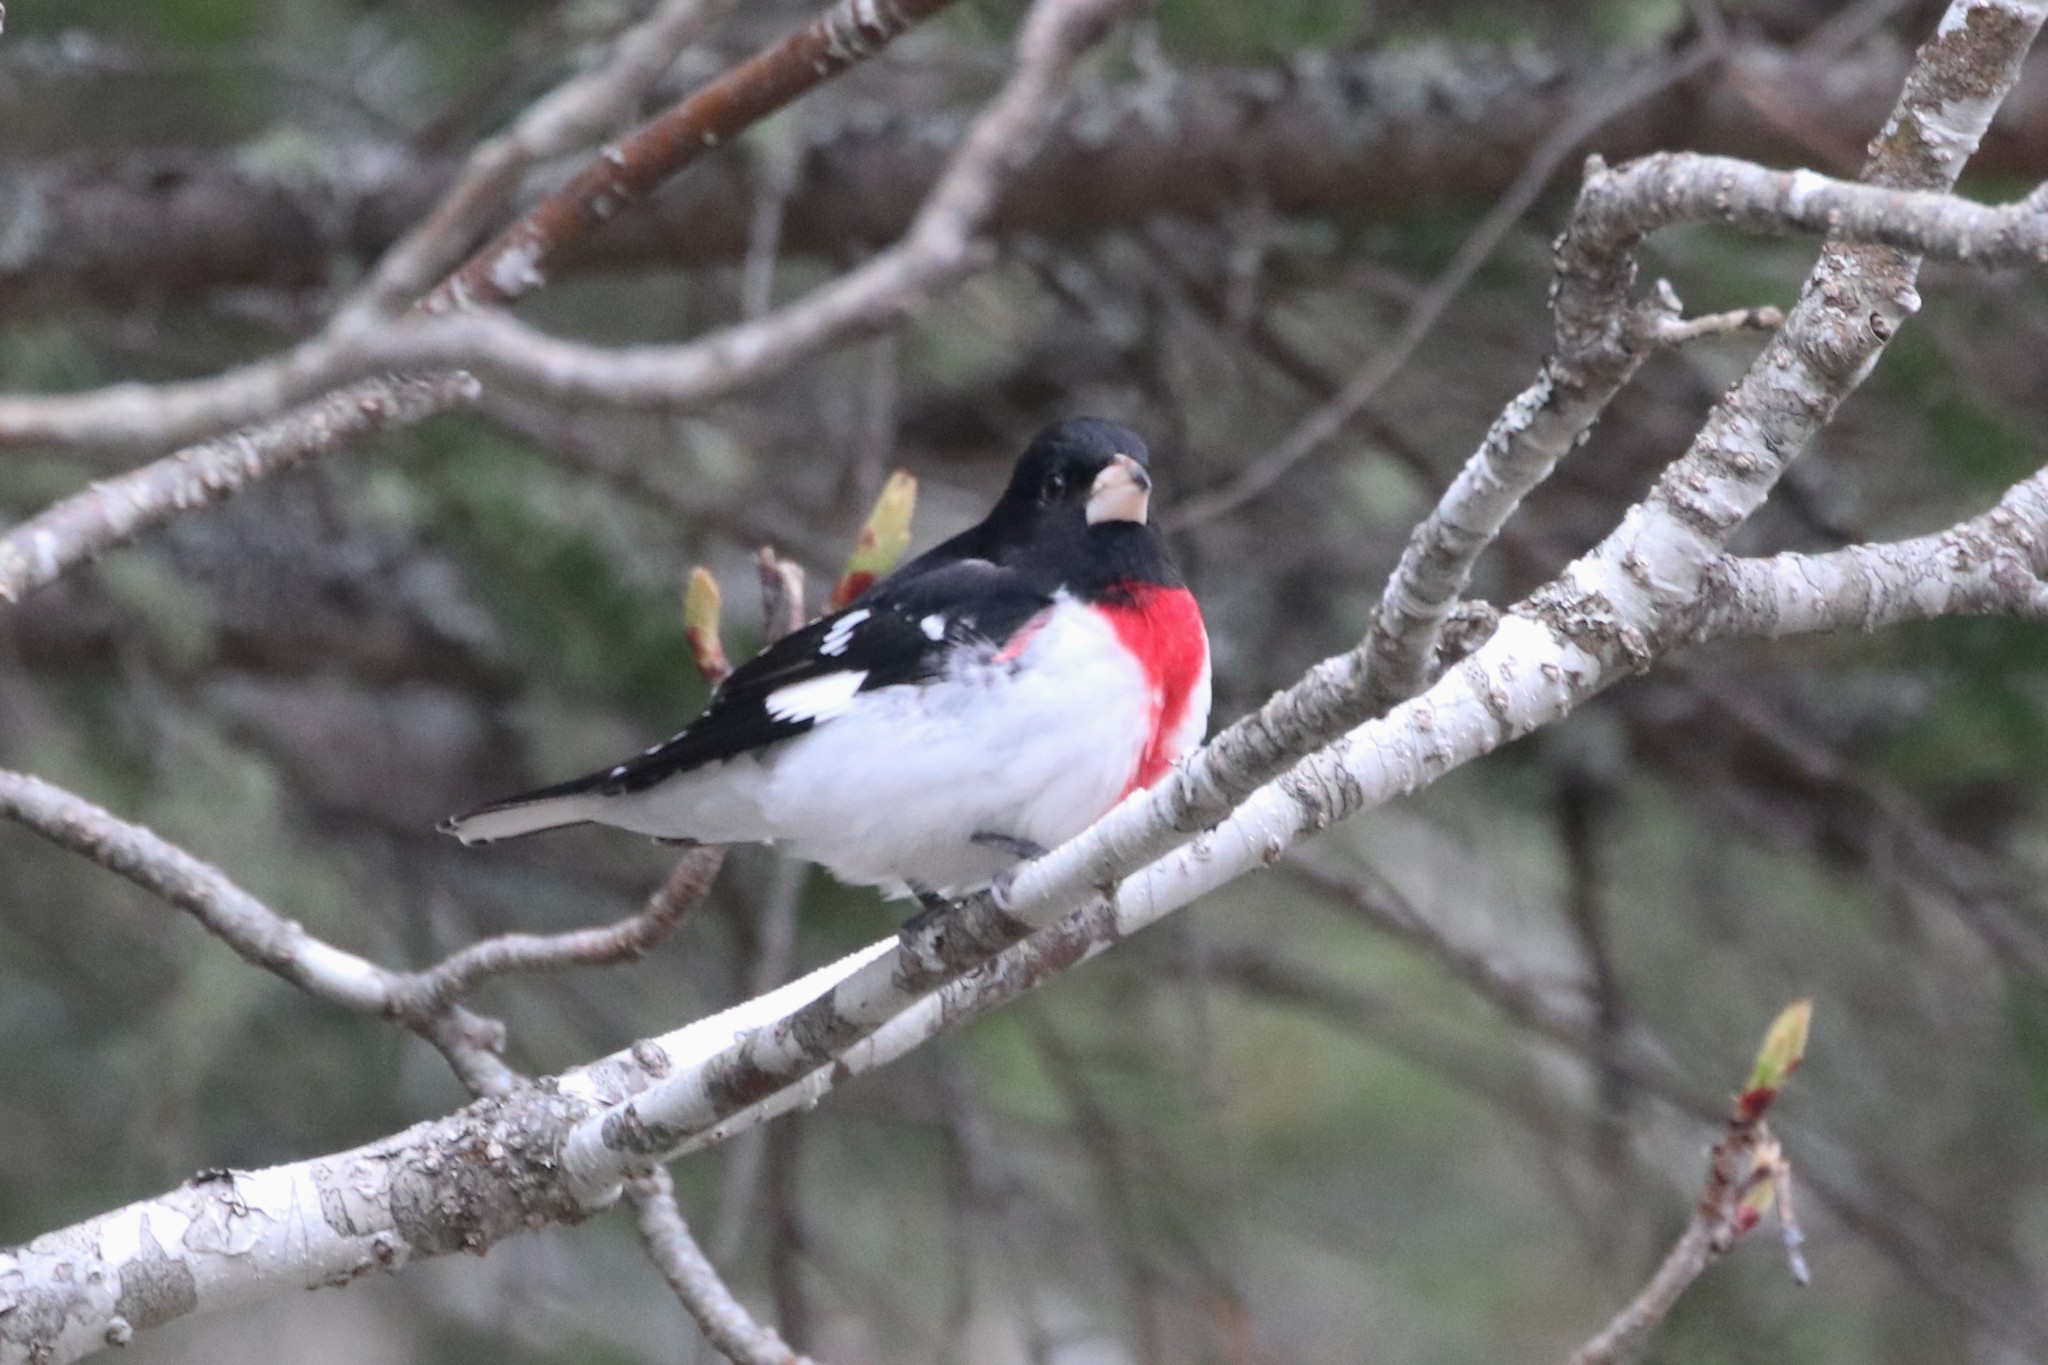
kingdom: Animalia
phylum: Chordata
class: Aves
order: Passeriformes
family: Cardinalidae
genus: Pheucticus
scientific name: Pheucticus ludovicianus
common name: Rose-breasted grosbeak
